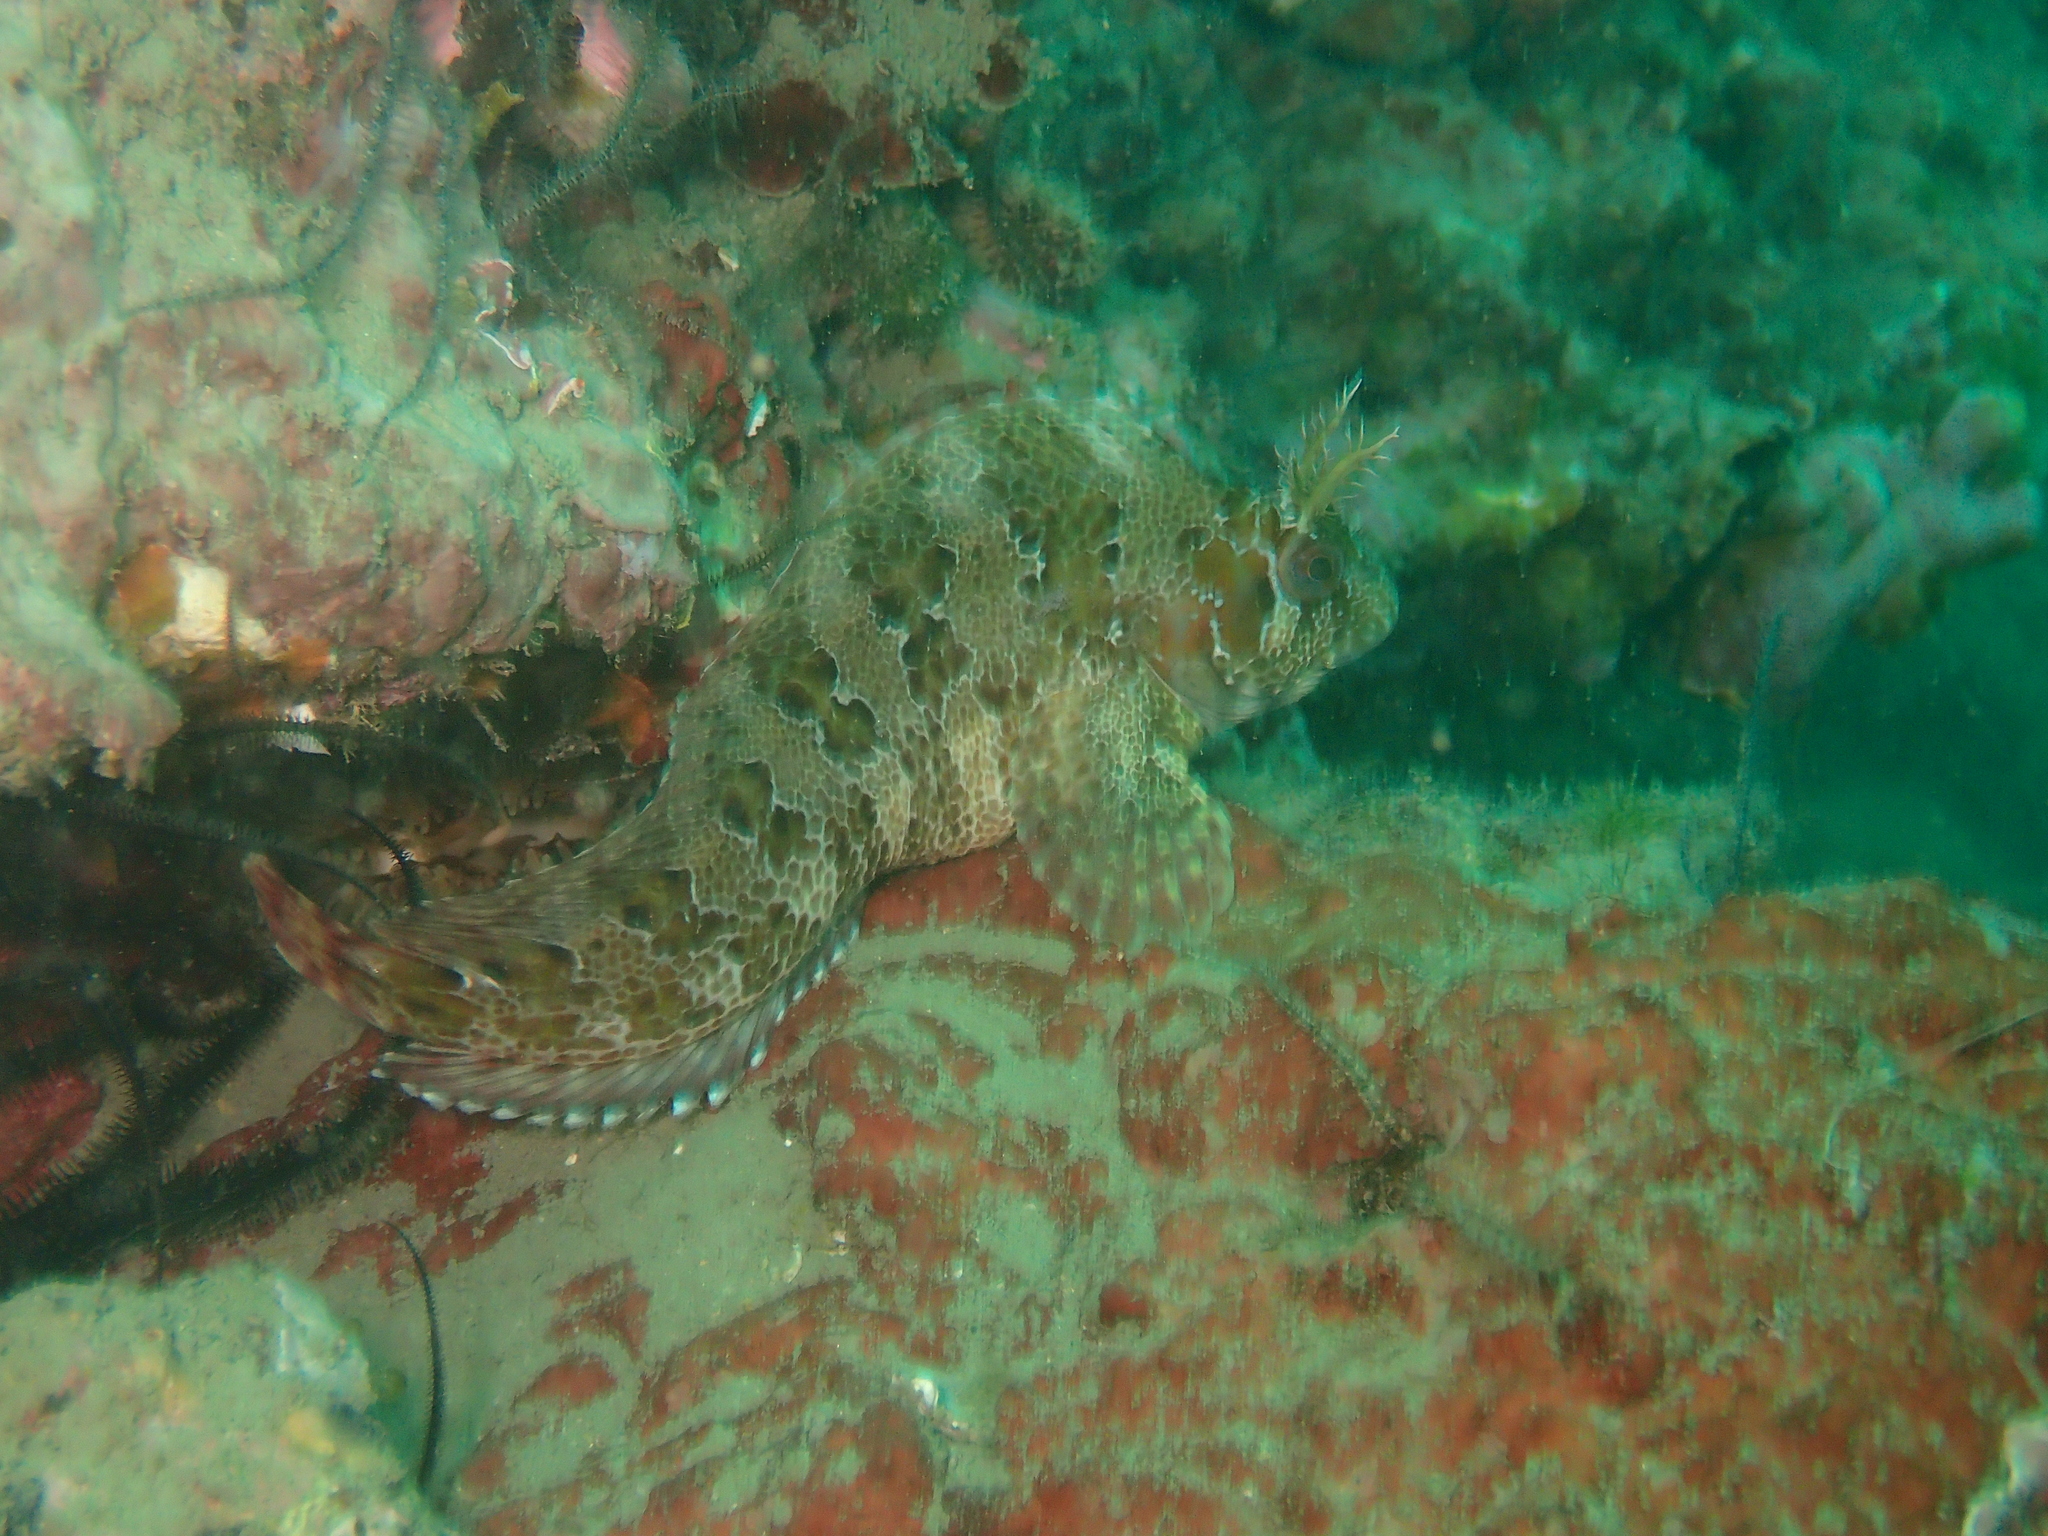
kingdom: Animalia
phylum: Chordata
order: Perciformes
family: Blenniidae
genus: Parablennius
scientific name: Parablennius gattorugine
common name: Tompot blenny
